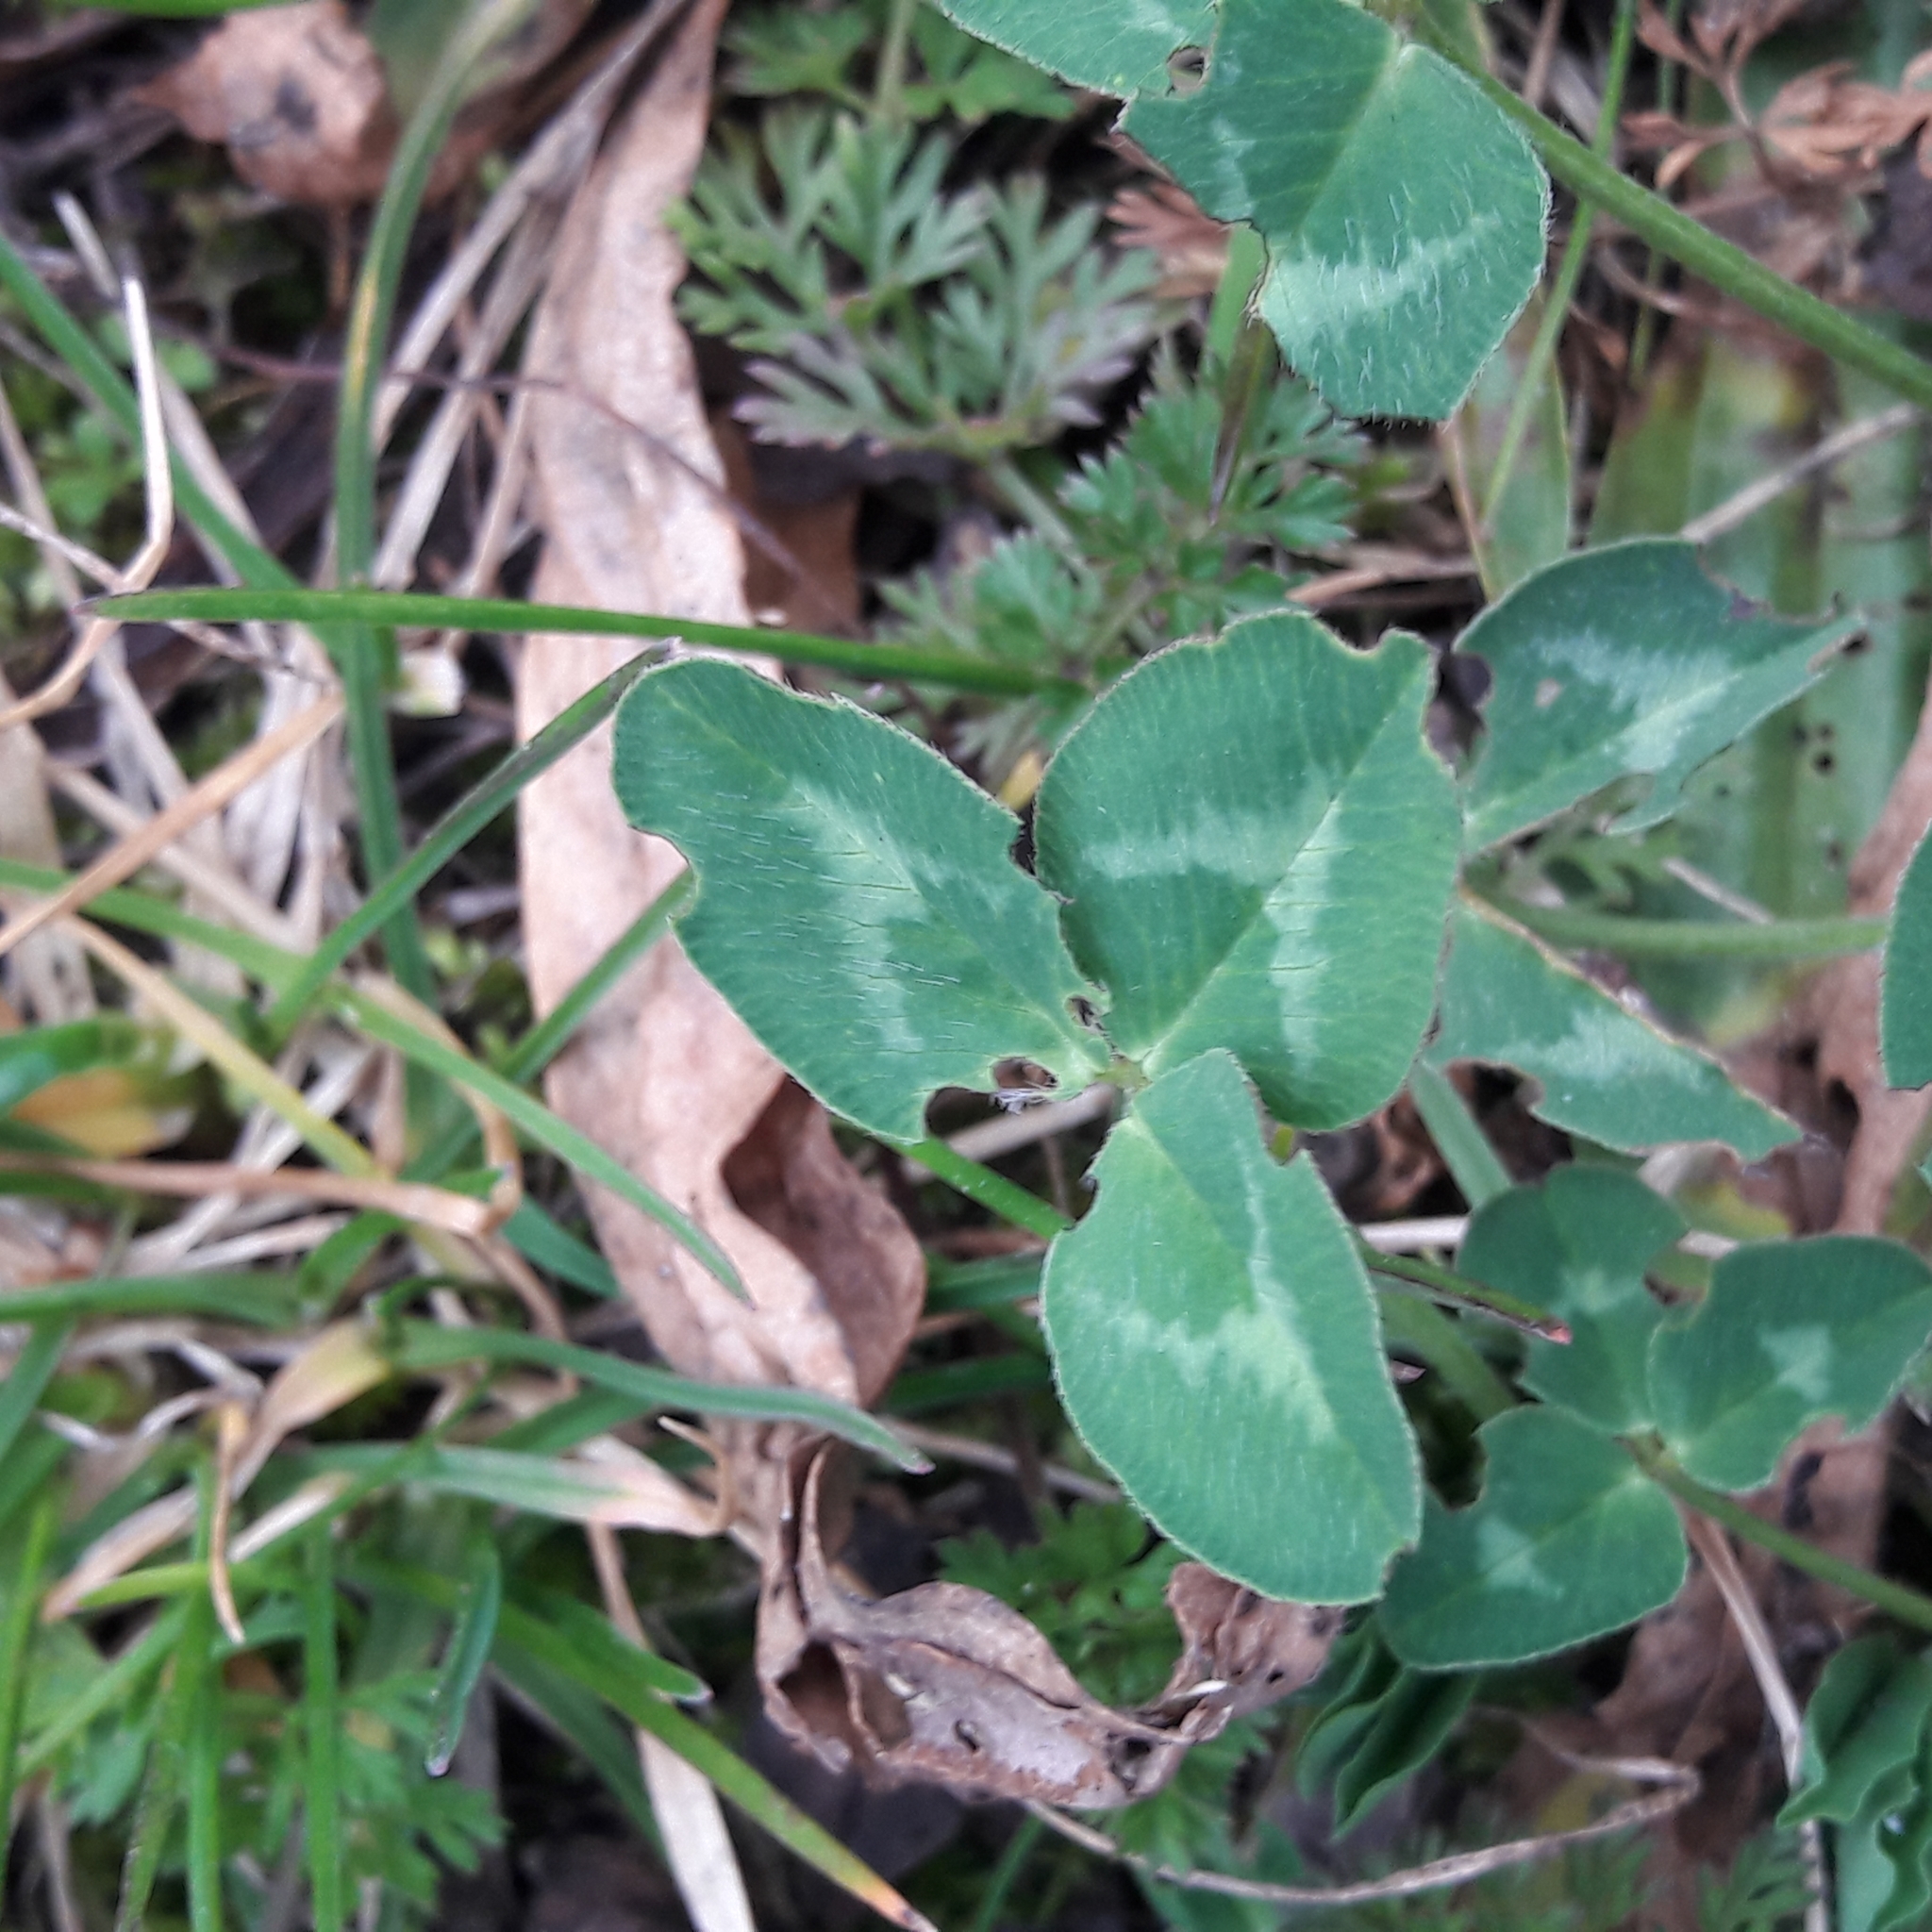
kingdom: Plantae
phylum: Tracheophyta
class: Magnoliopsida
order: Fabales
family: Fabaceae
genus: Trifolium
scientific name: Trifolium pratense
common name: Red clover
